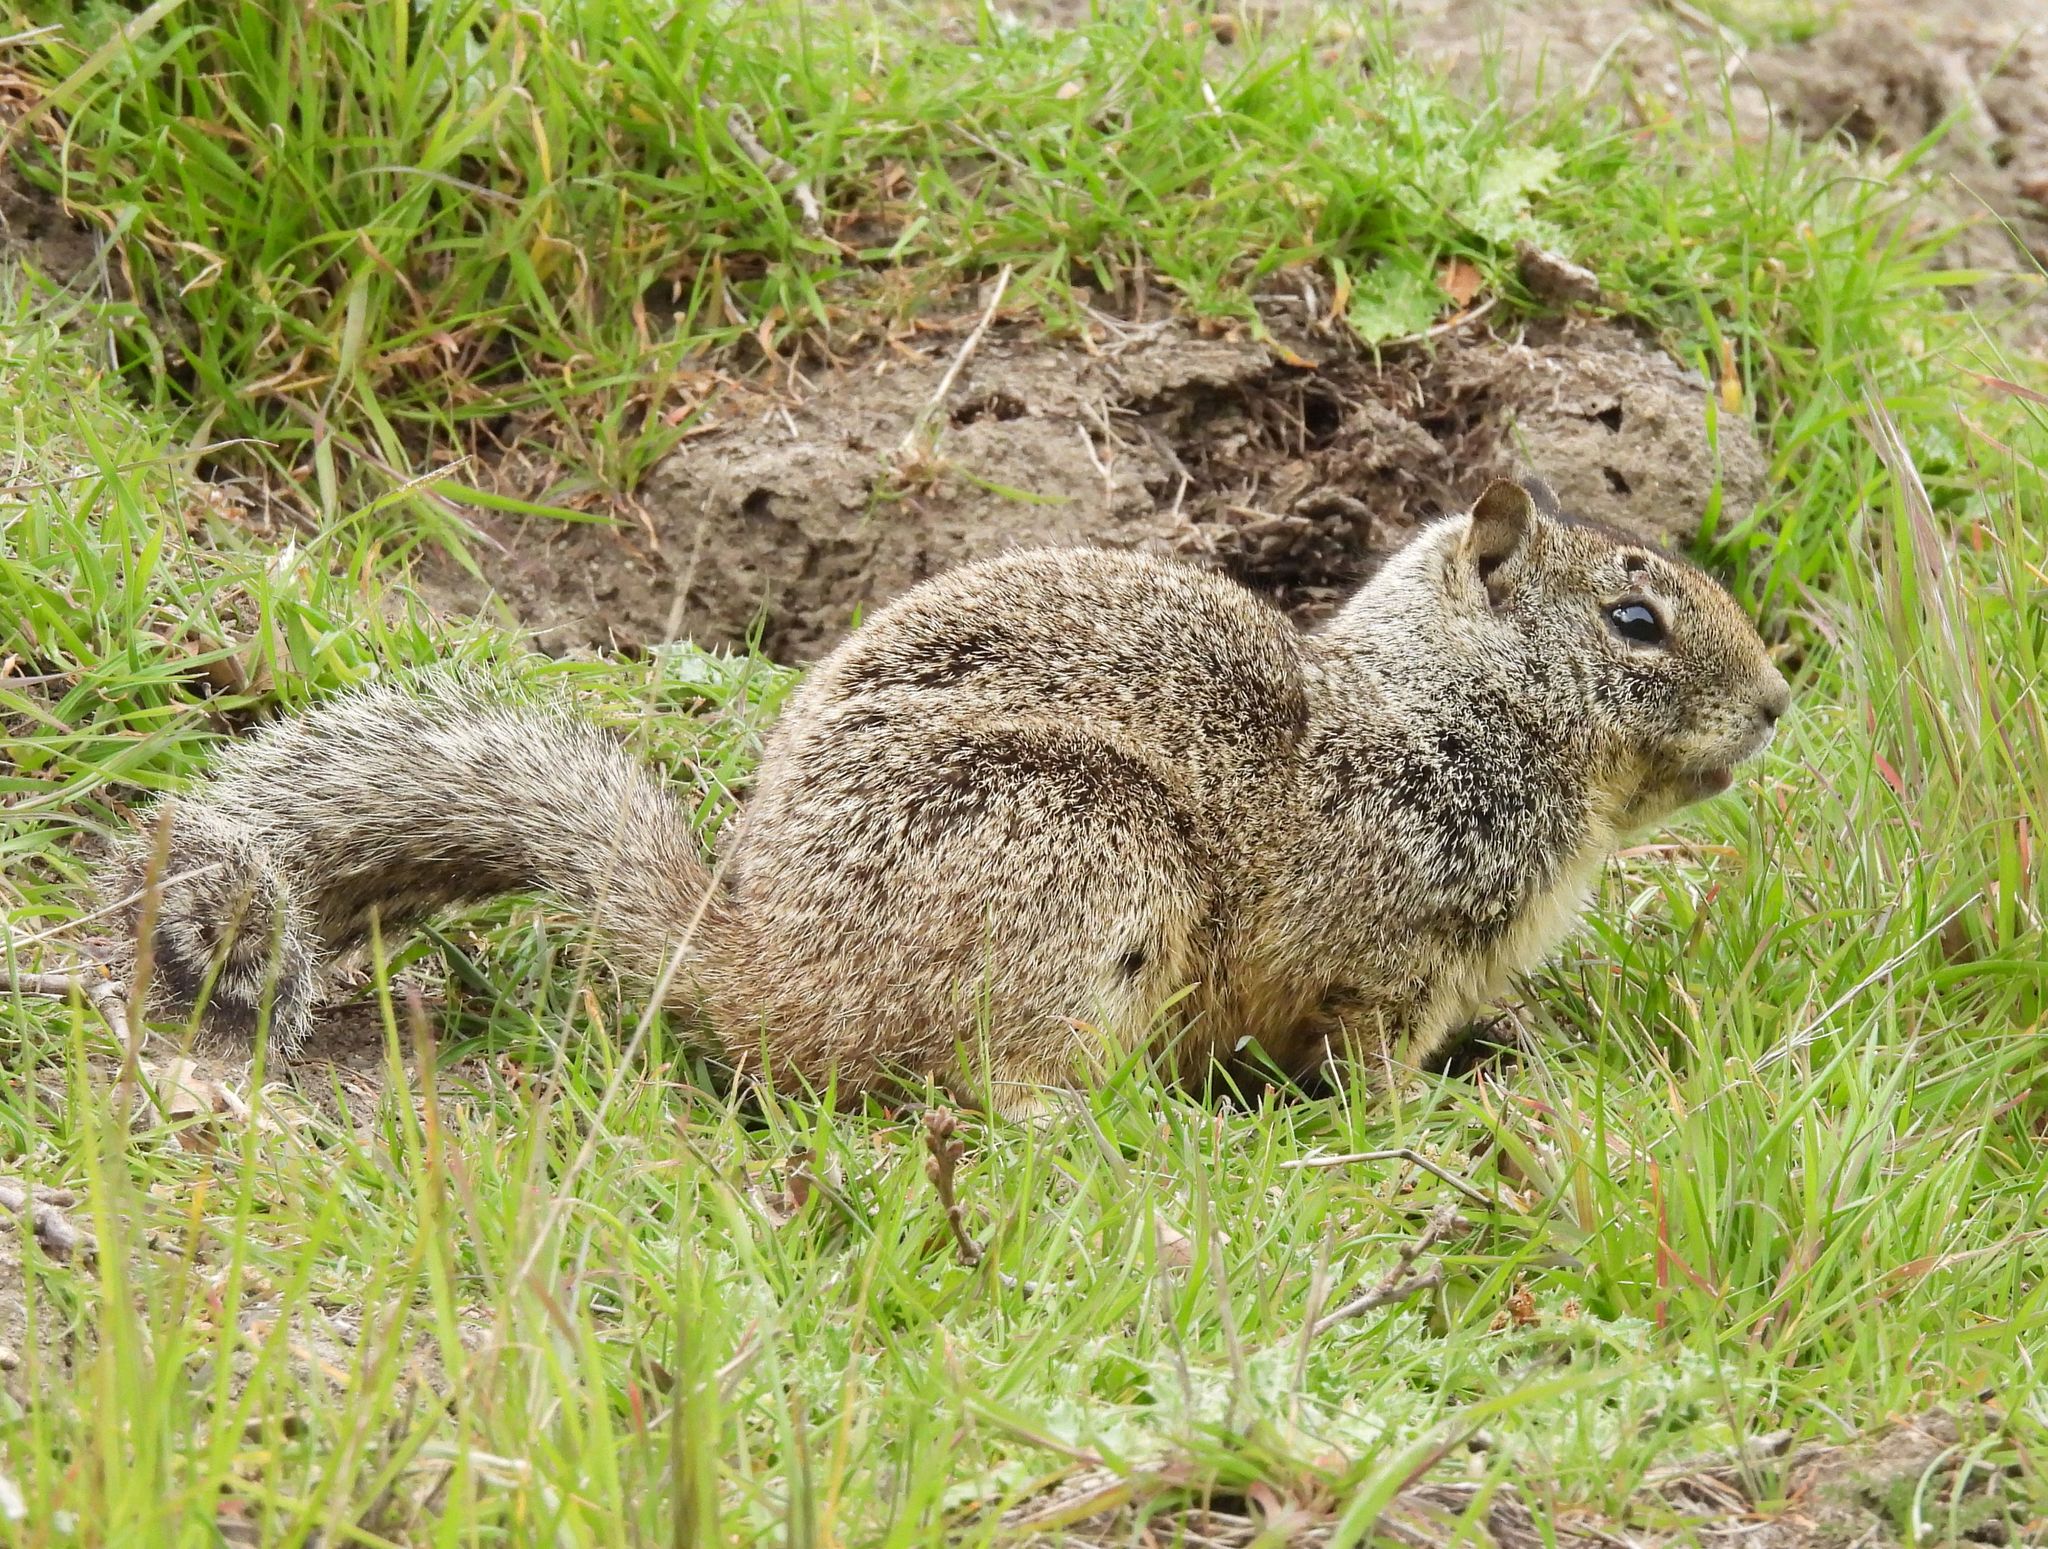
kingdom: Animalia
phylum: Chordata
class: Mammalia
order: Rodentia
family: Sciuridae
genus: Otospermophilus
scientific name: Otospermophilus beecheyi
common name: California ground squirrel
